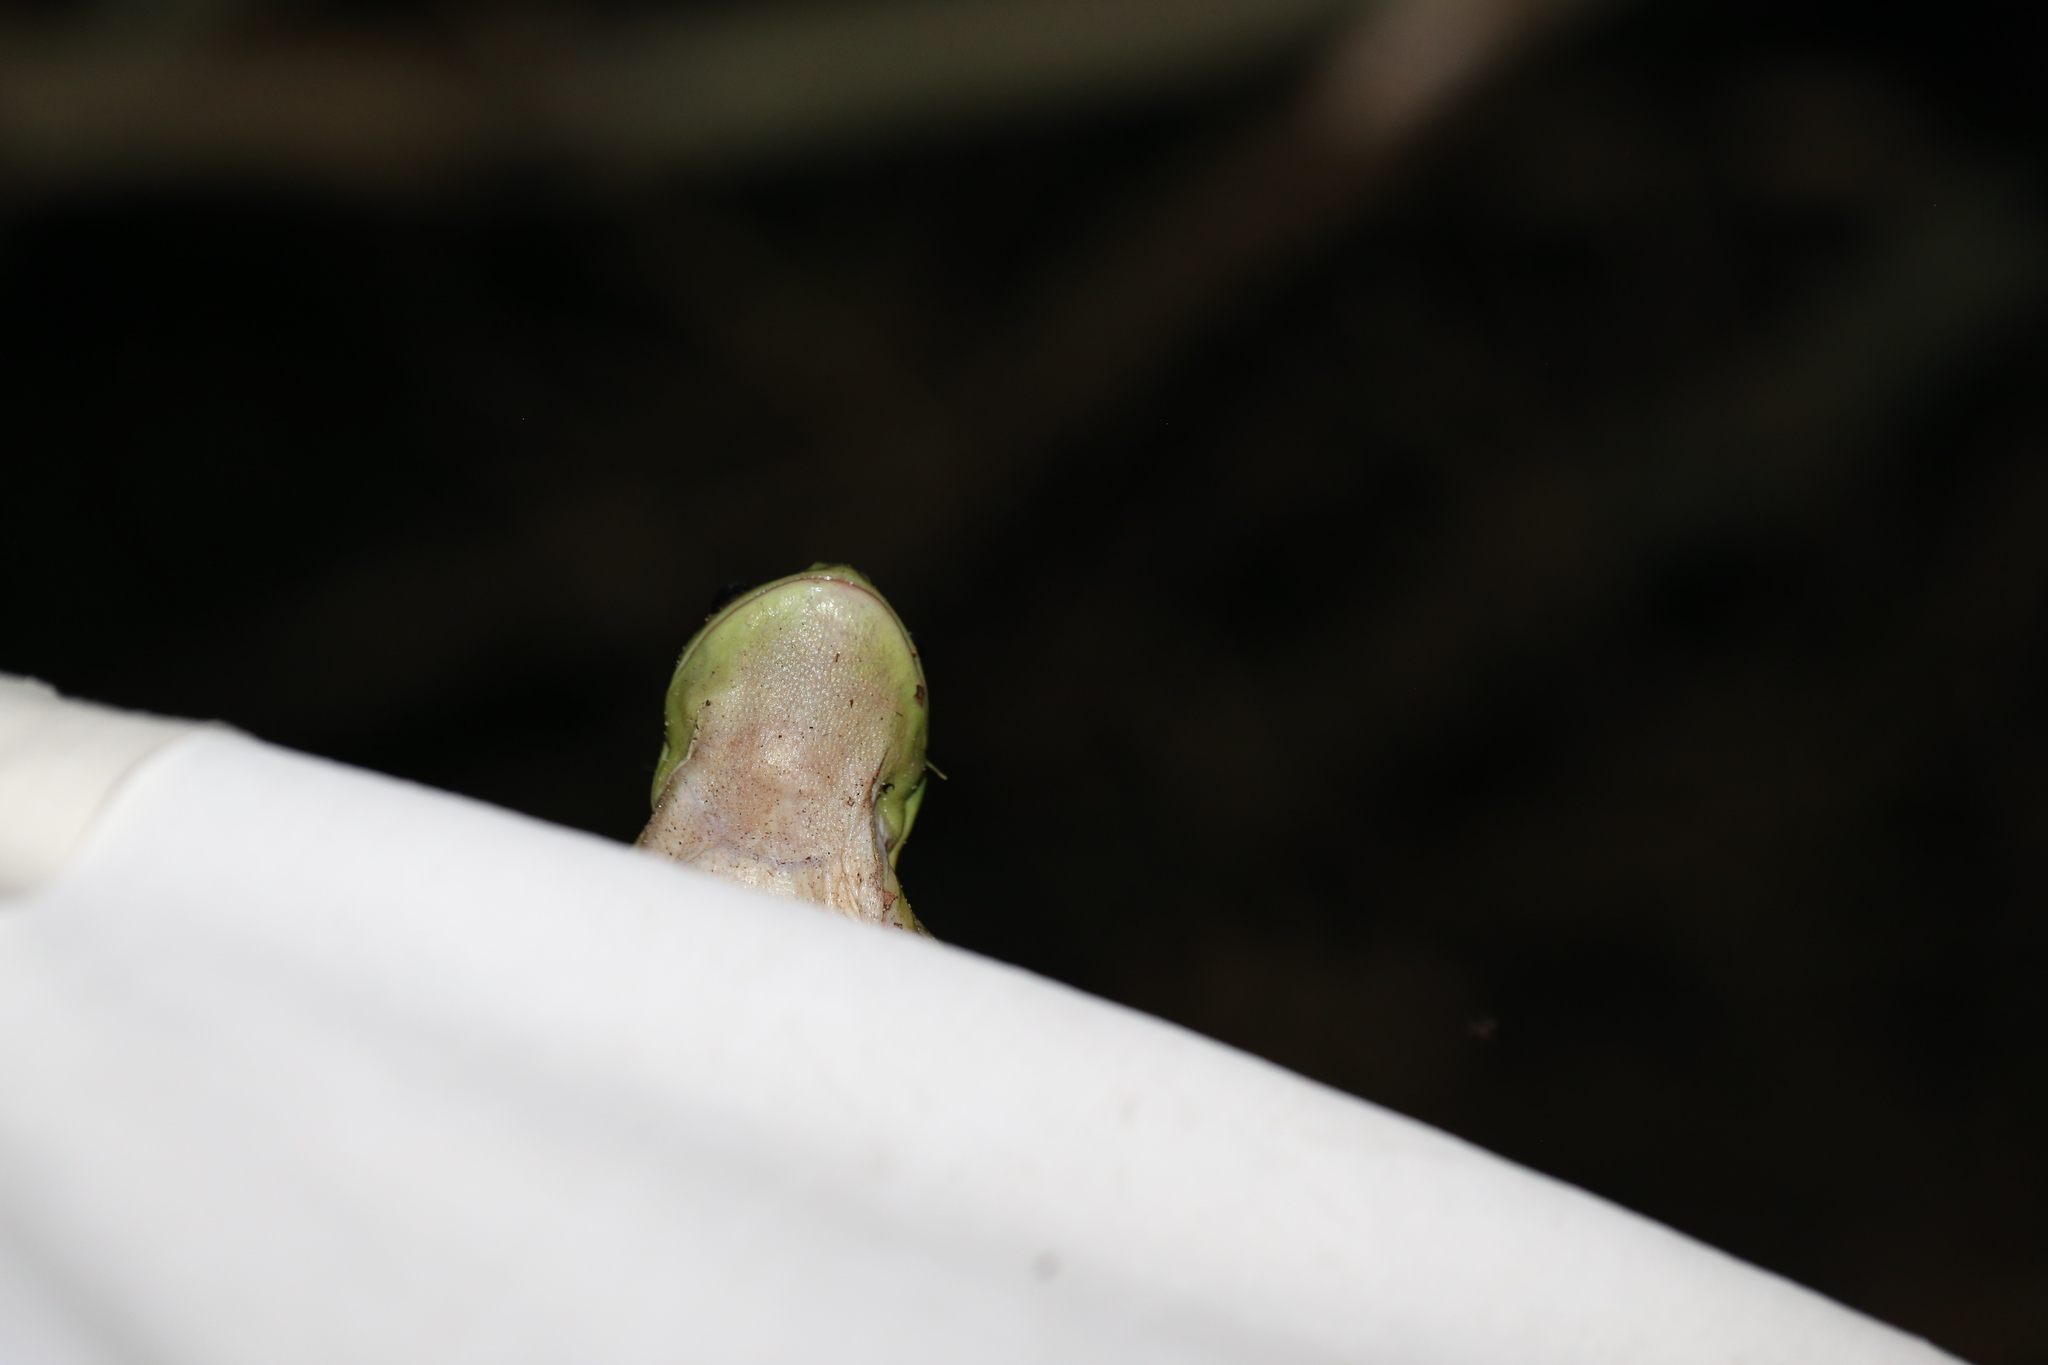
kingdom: Animalia
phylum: Chordata
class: Amphibia
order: Anura
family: Pelodryadidae
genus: Ranoidea
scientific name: Ranoidea caerulea
